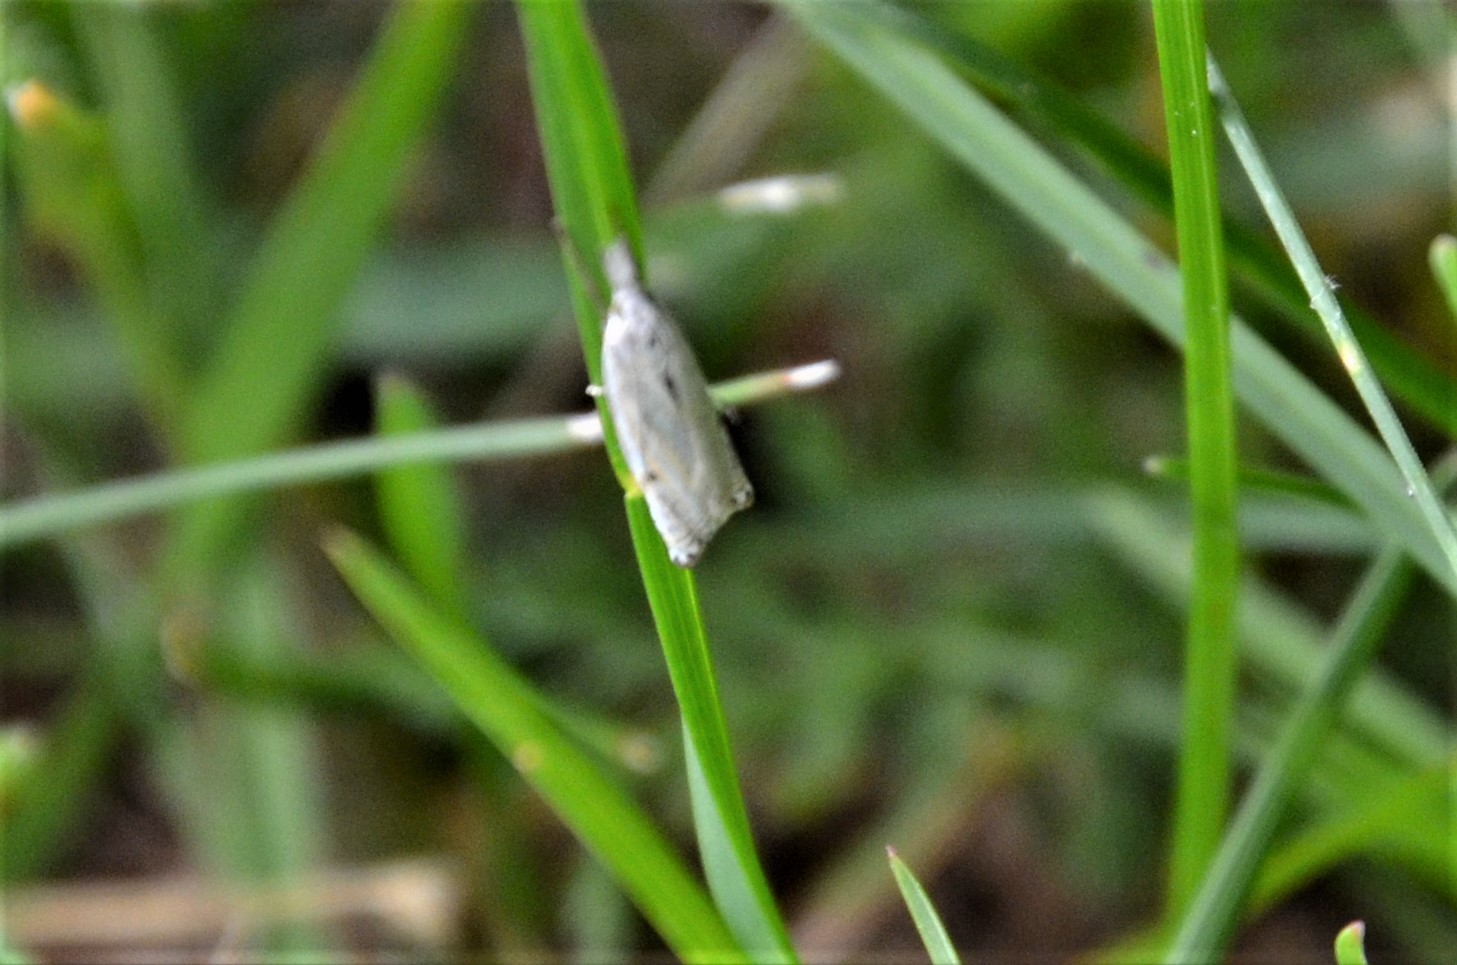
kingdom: Animalia
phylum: Arthropoda
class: Insecta
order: Lepidoptera
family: Crambidae
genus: Crambus
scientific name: Crambus nemorella
